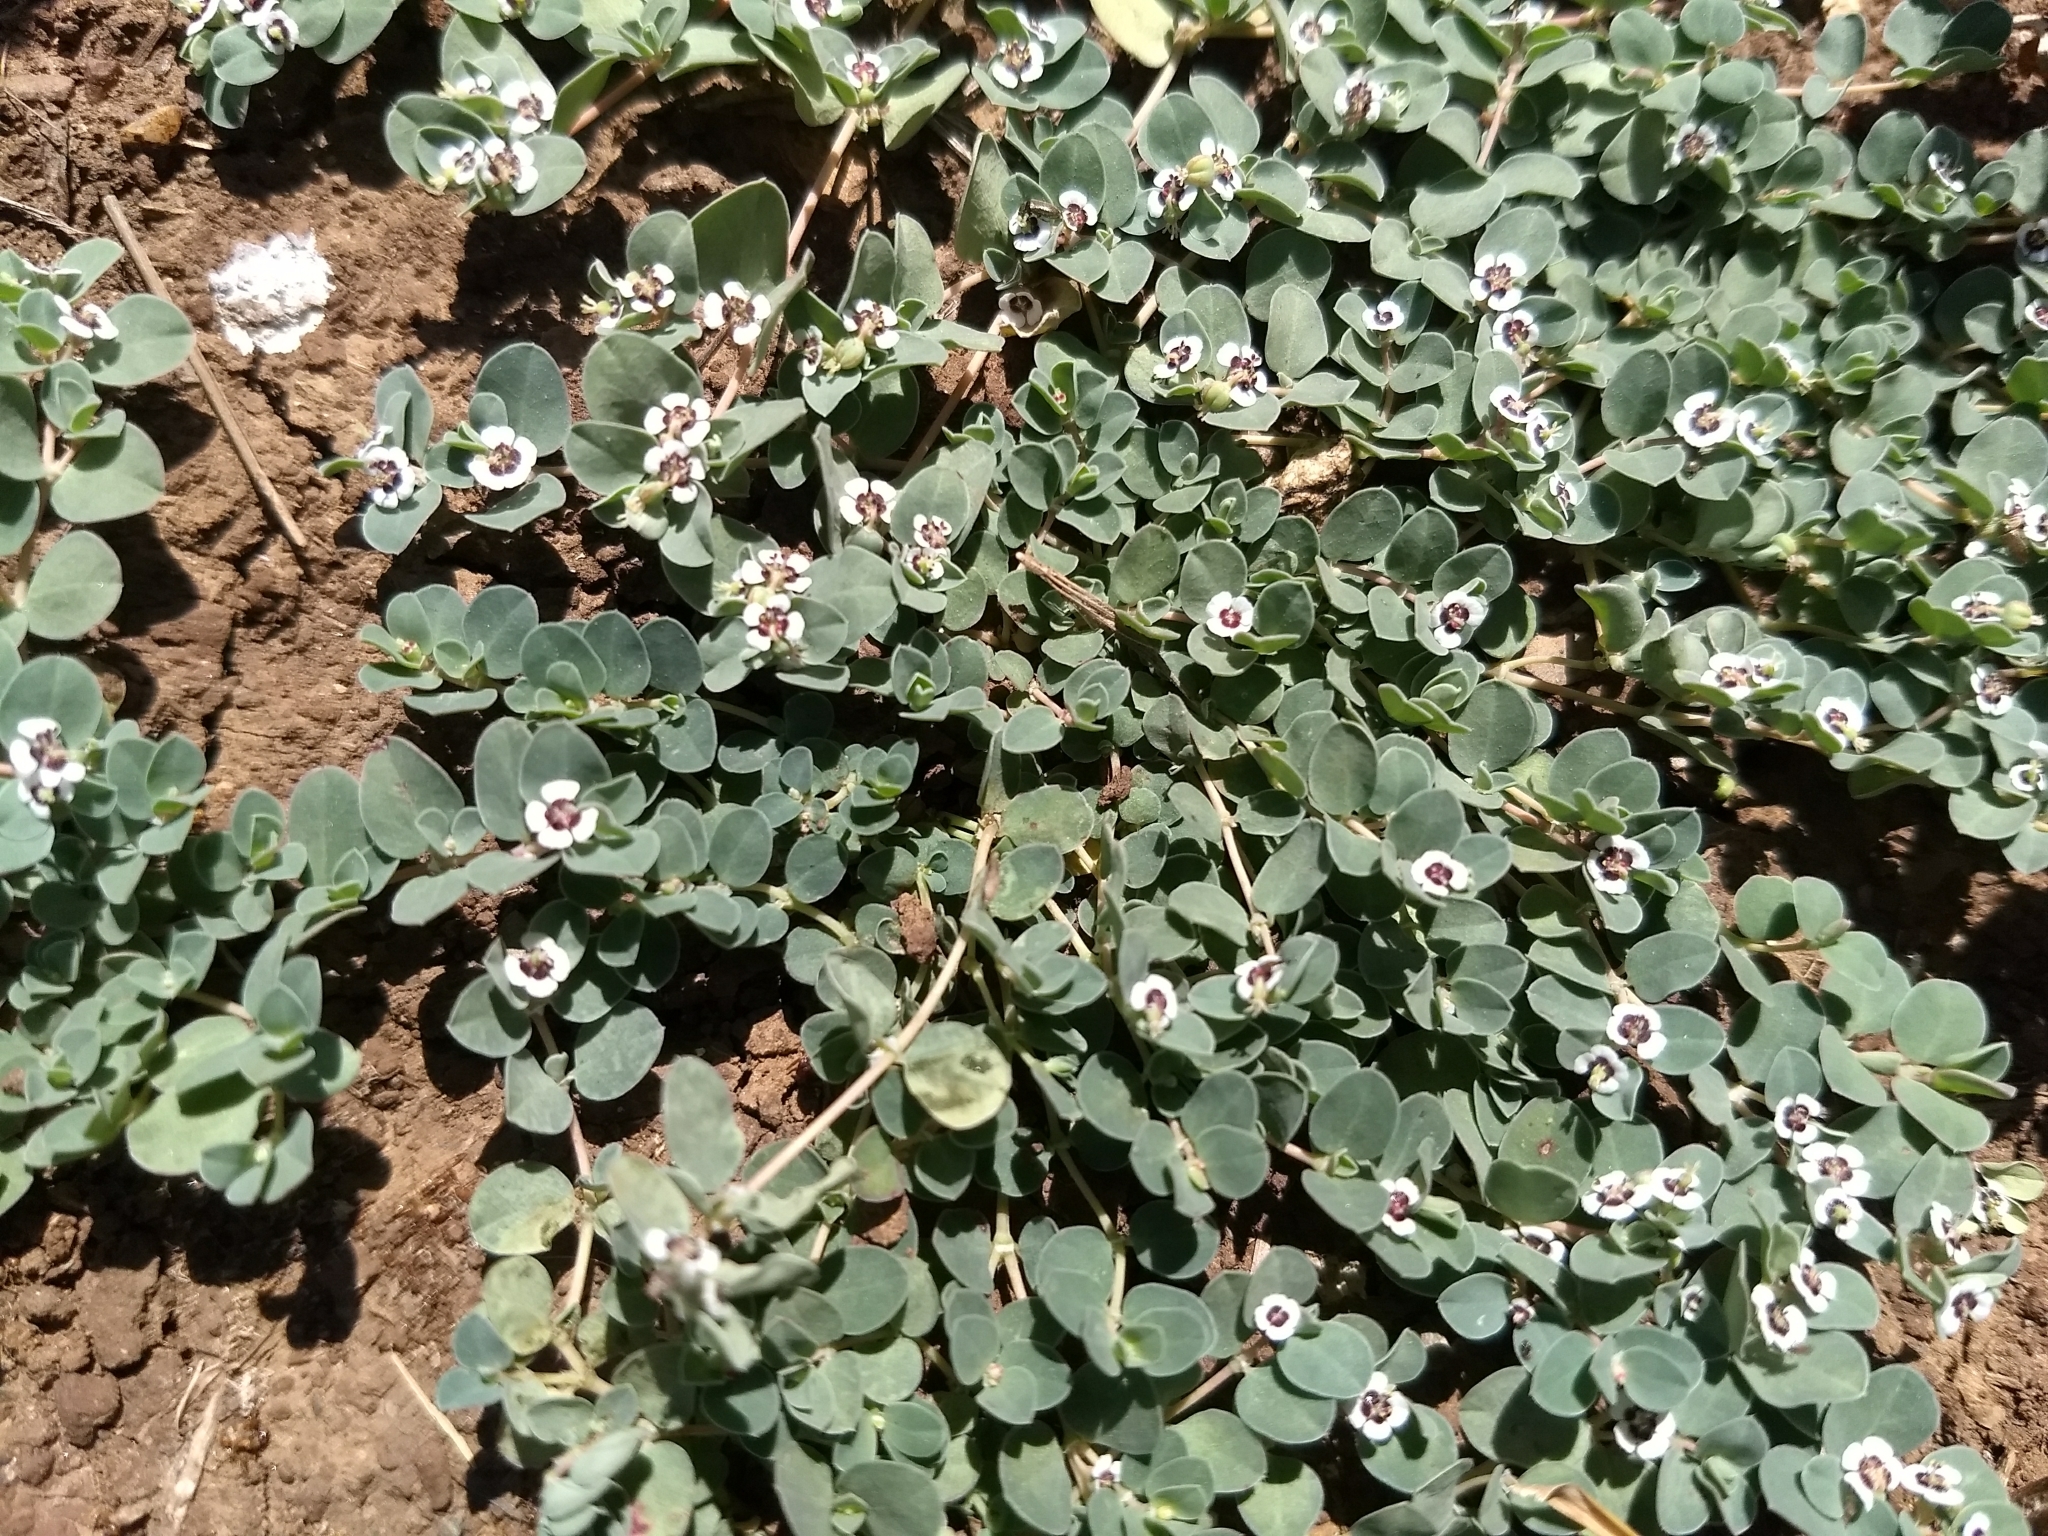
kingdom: Plantae
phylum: Tracheophyta
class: Magnoliopsida
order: Malpighiales
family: Euphorbiaceae
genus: Euphorbia
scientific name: Euphorbia albomarginata
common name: Whitemargin sandmat
